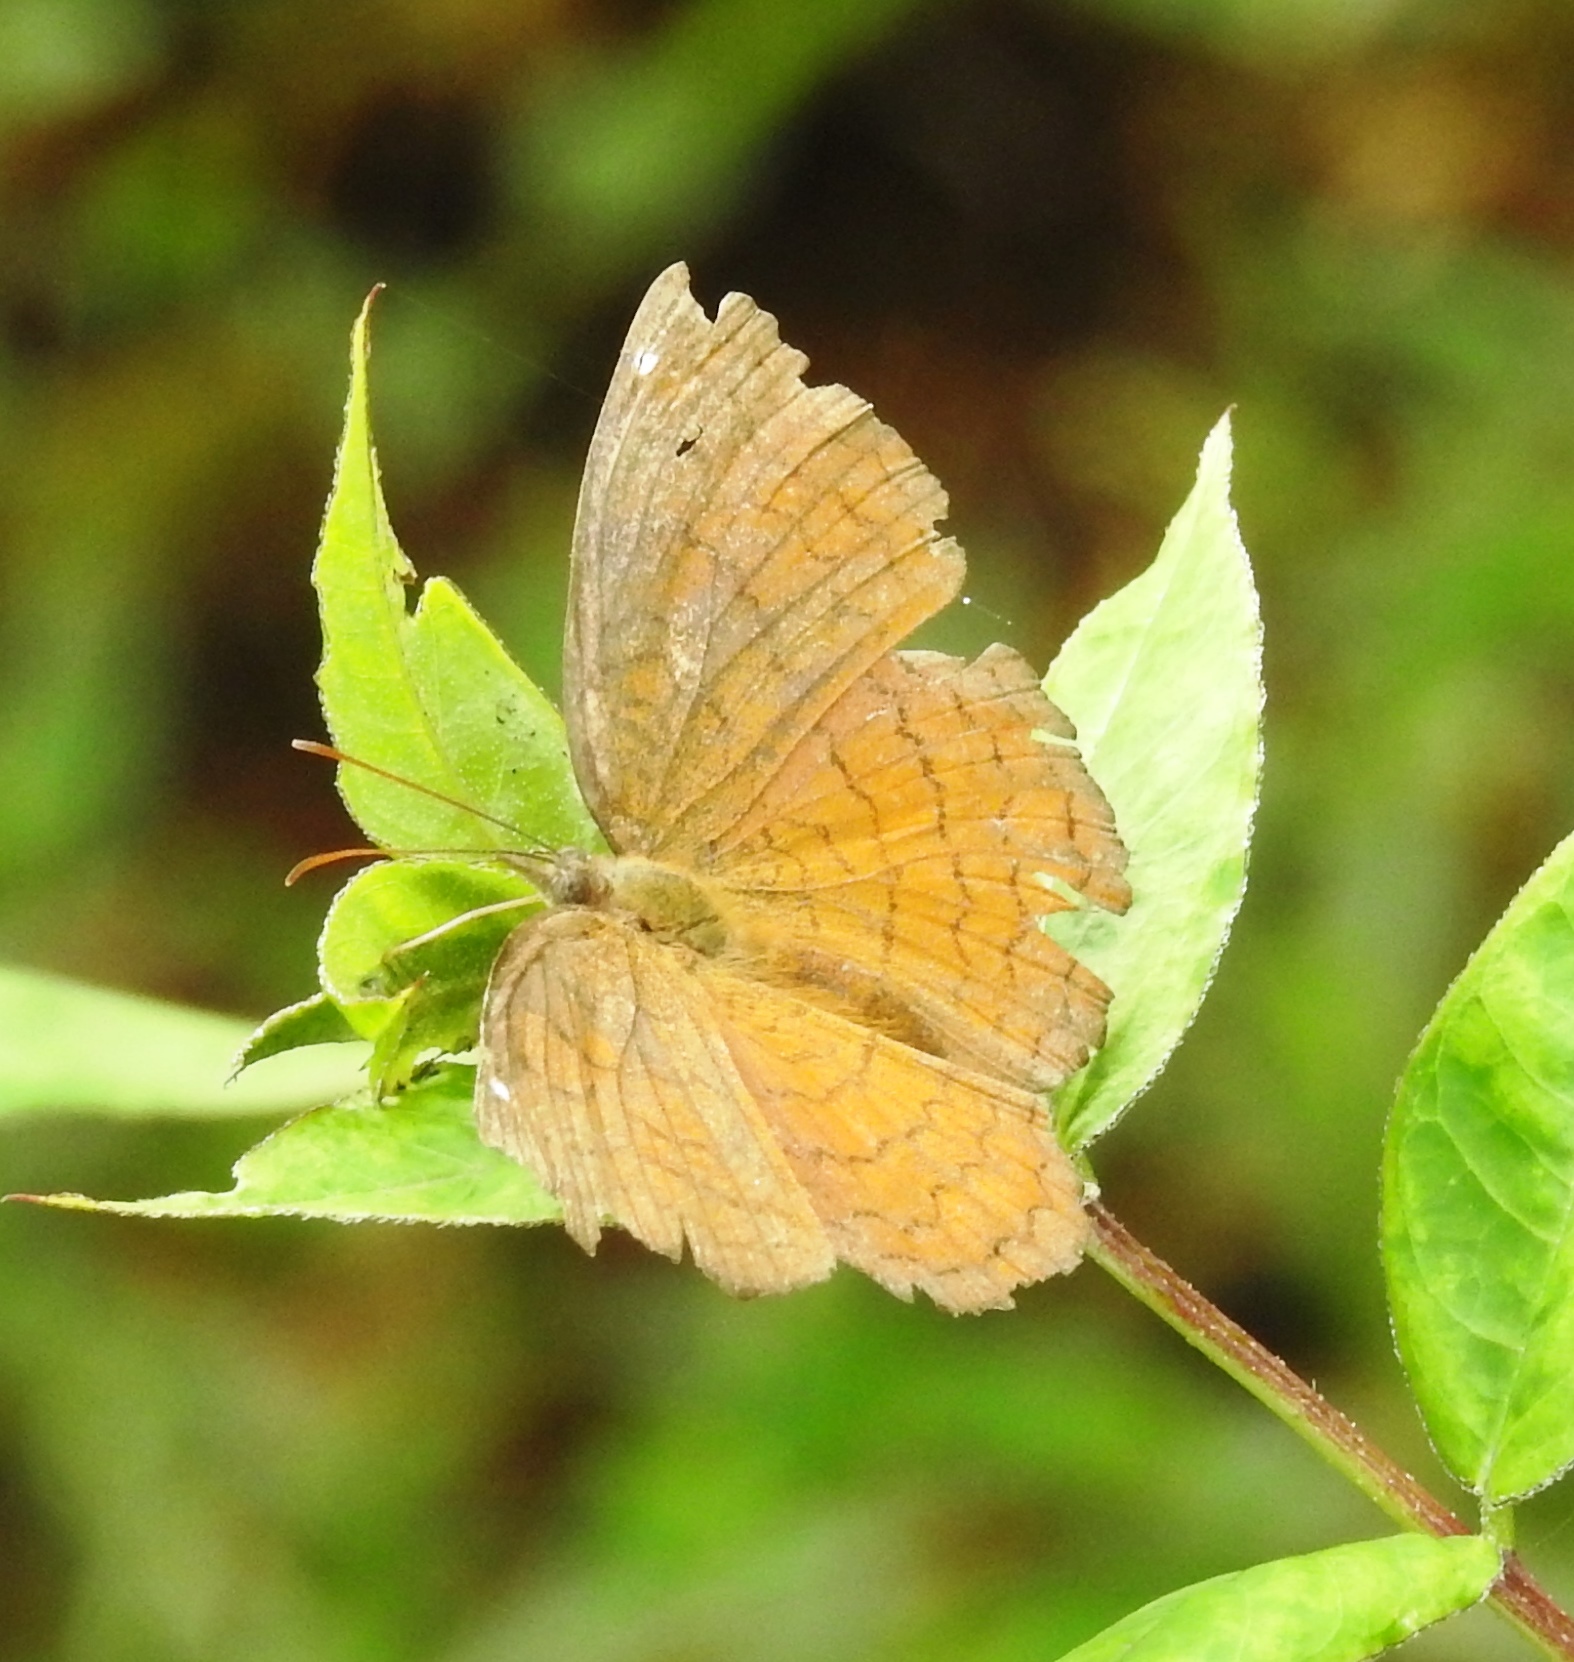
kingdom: Animalia
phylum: Arthropoda
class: Insecta
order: Lepidoptera
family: Nymphalidae
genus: Ariadne
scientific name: Ariadne ariadne
